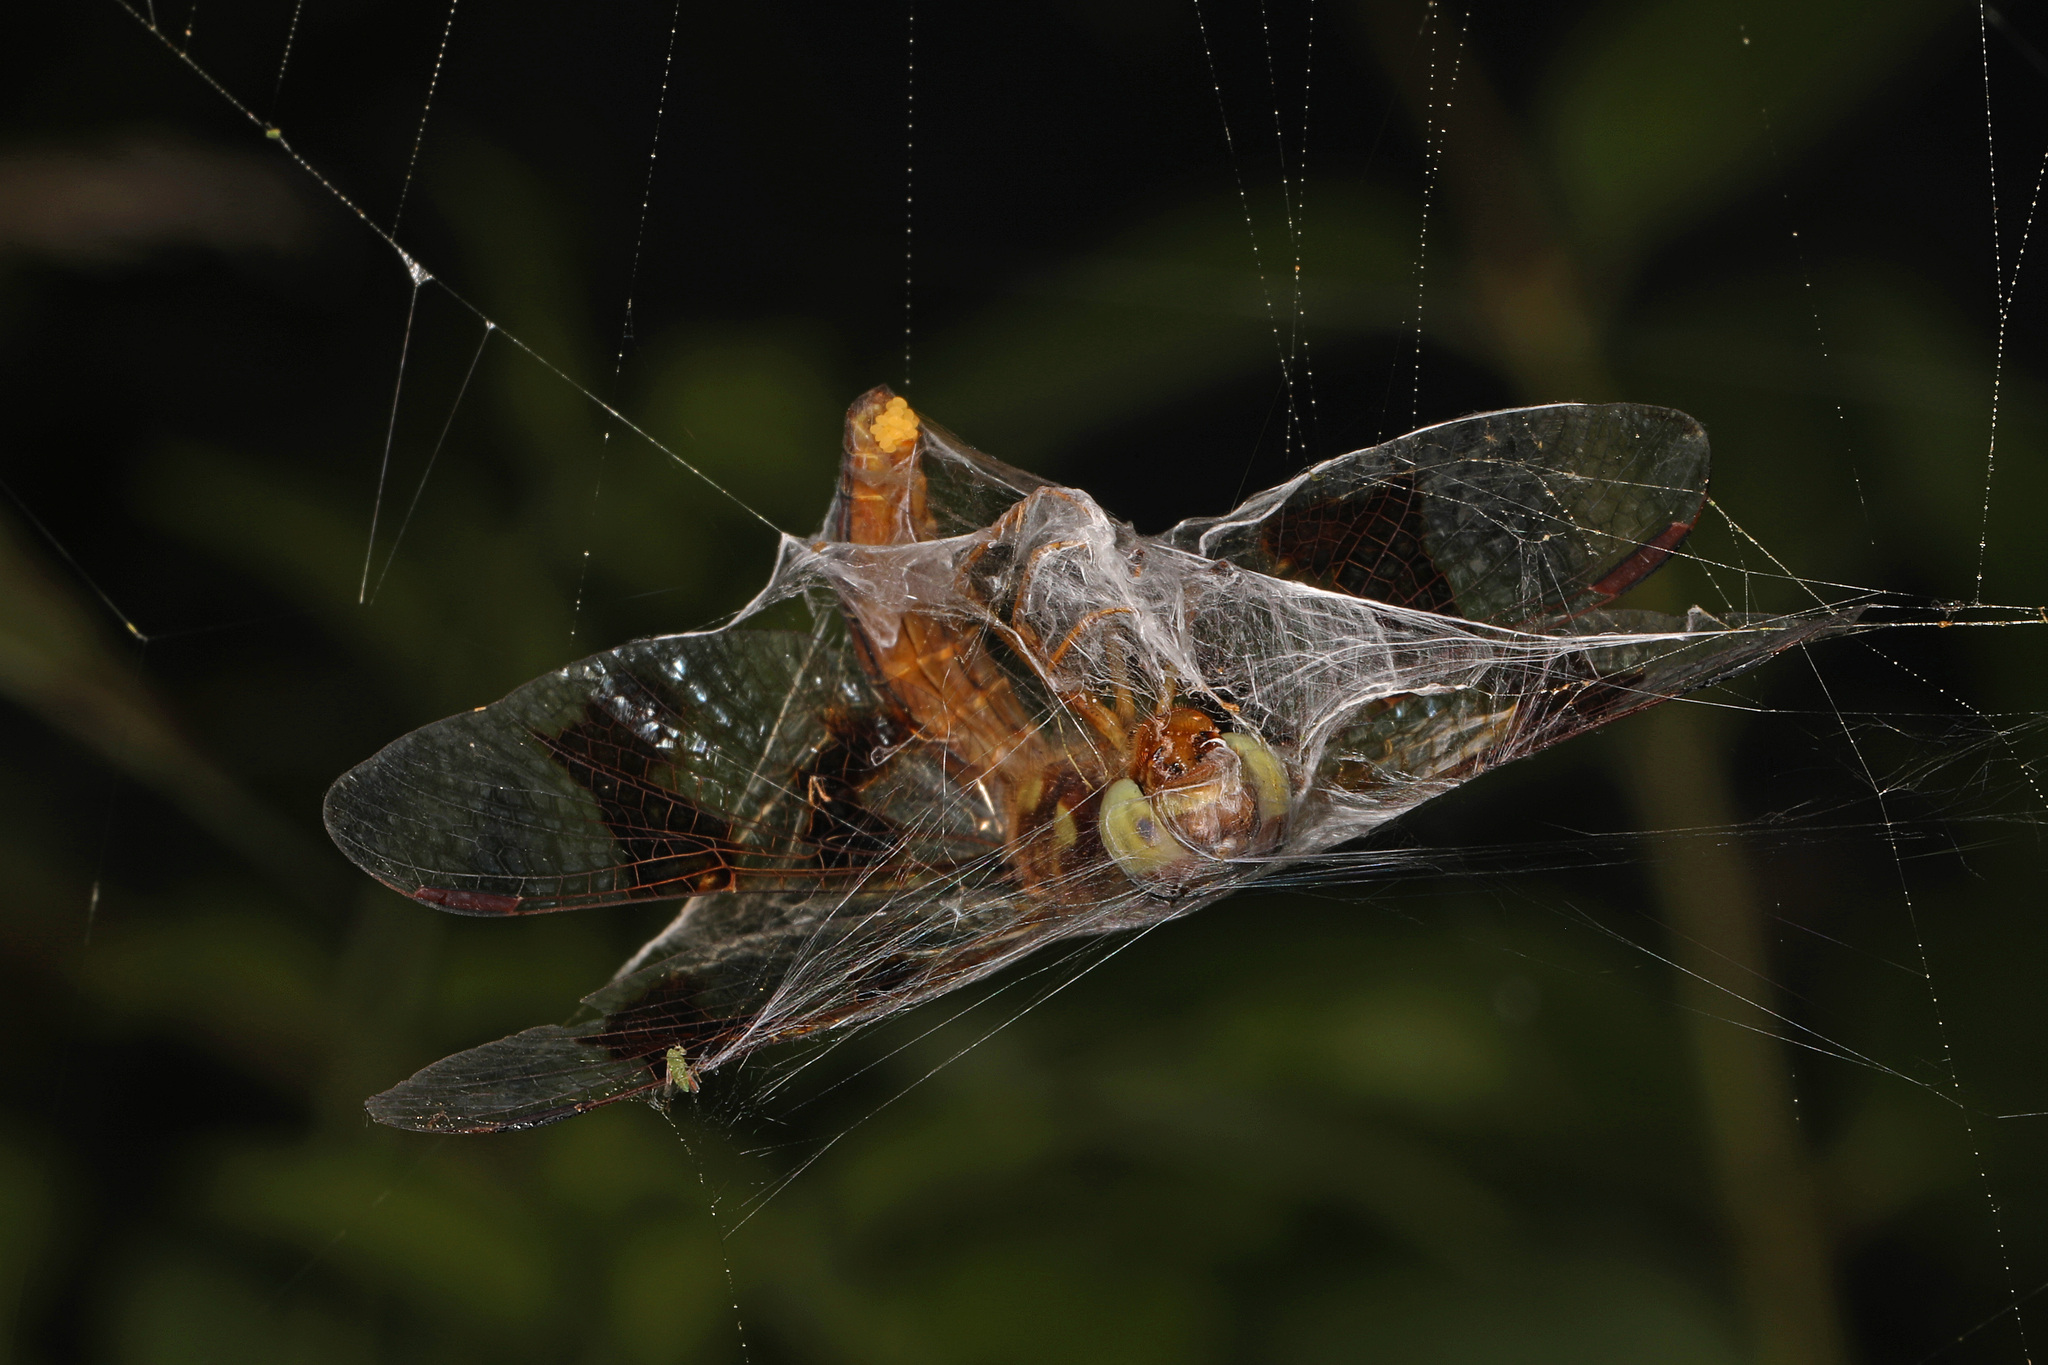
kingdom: Animalia
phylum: Arthropoda
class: Insecta
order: Odonata
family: Libellulidae
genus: Perithemis
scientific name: Perithemis tenera
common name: Eastern amberwing
